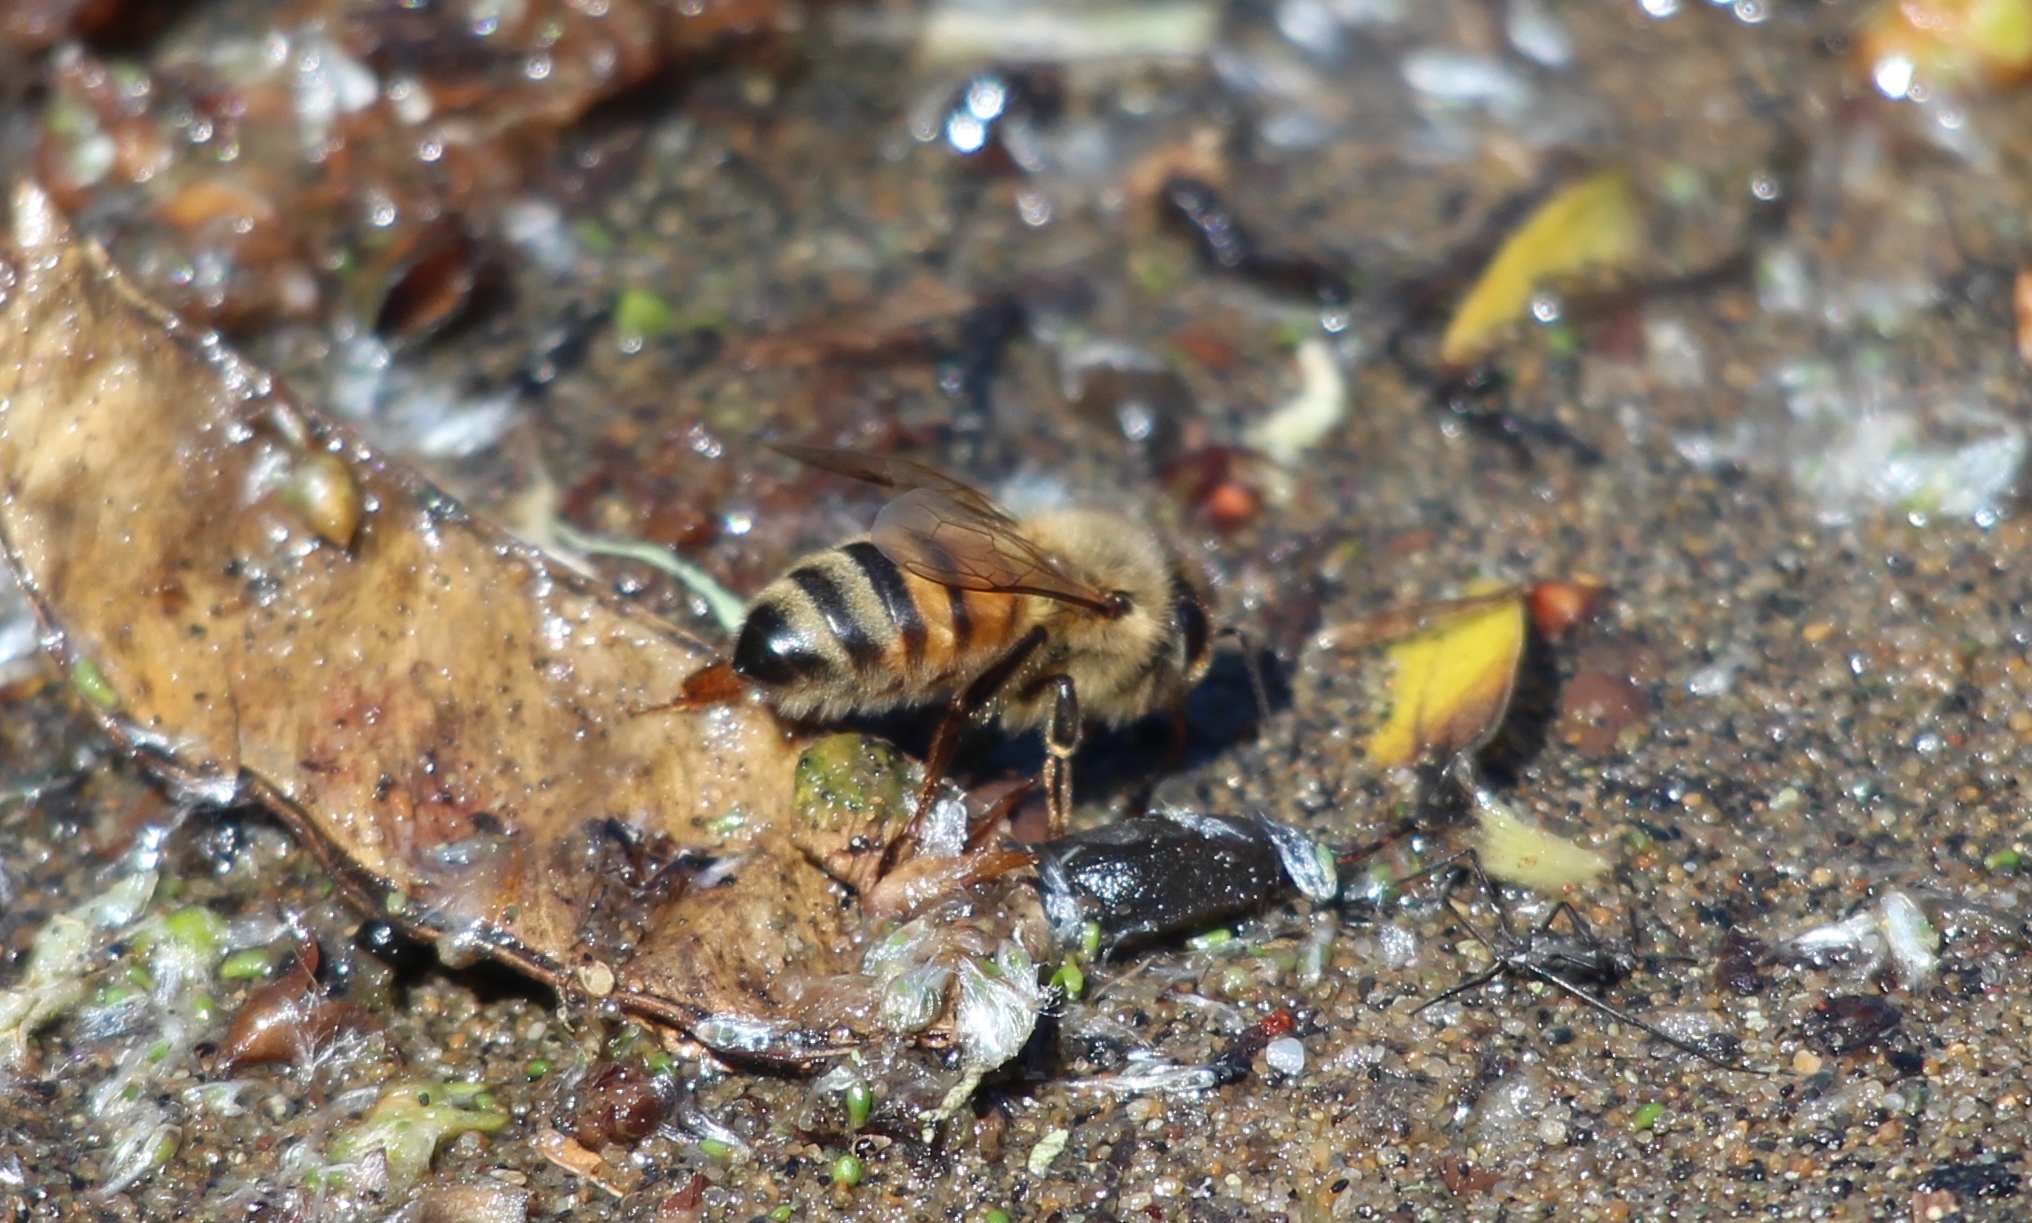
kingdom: Animalia
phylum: Arthropoda
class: Insecta
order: Hymenoptera
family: Apidae
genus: Apis
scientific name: Apis mellifera
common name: Honey bee
